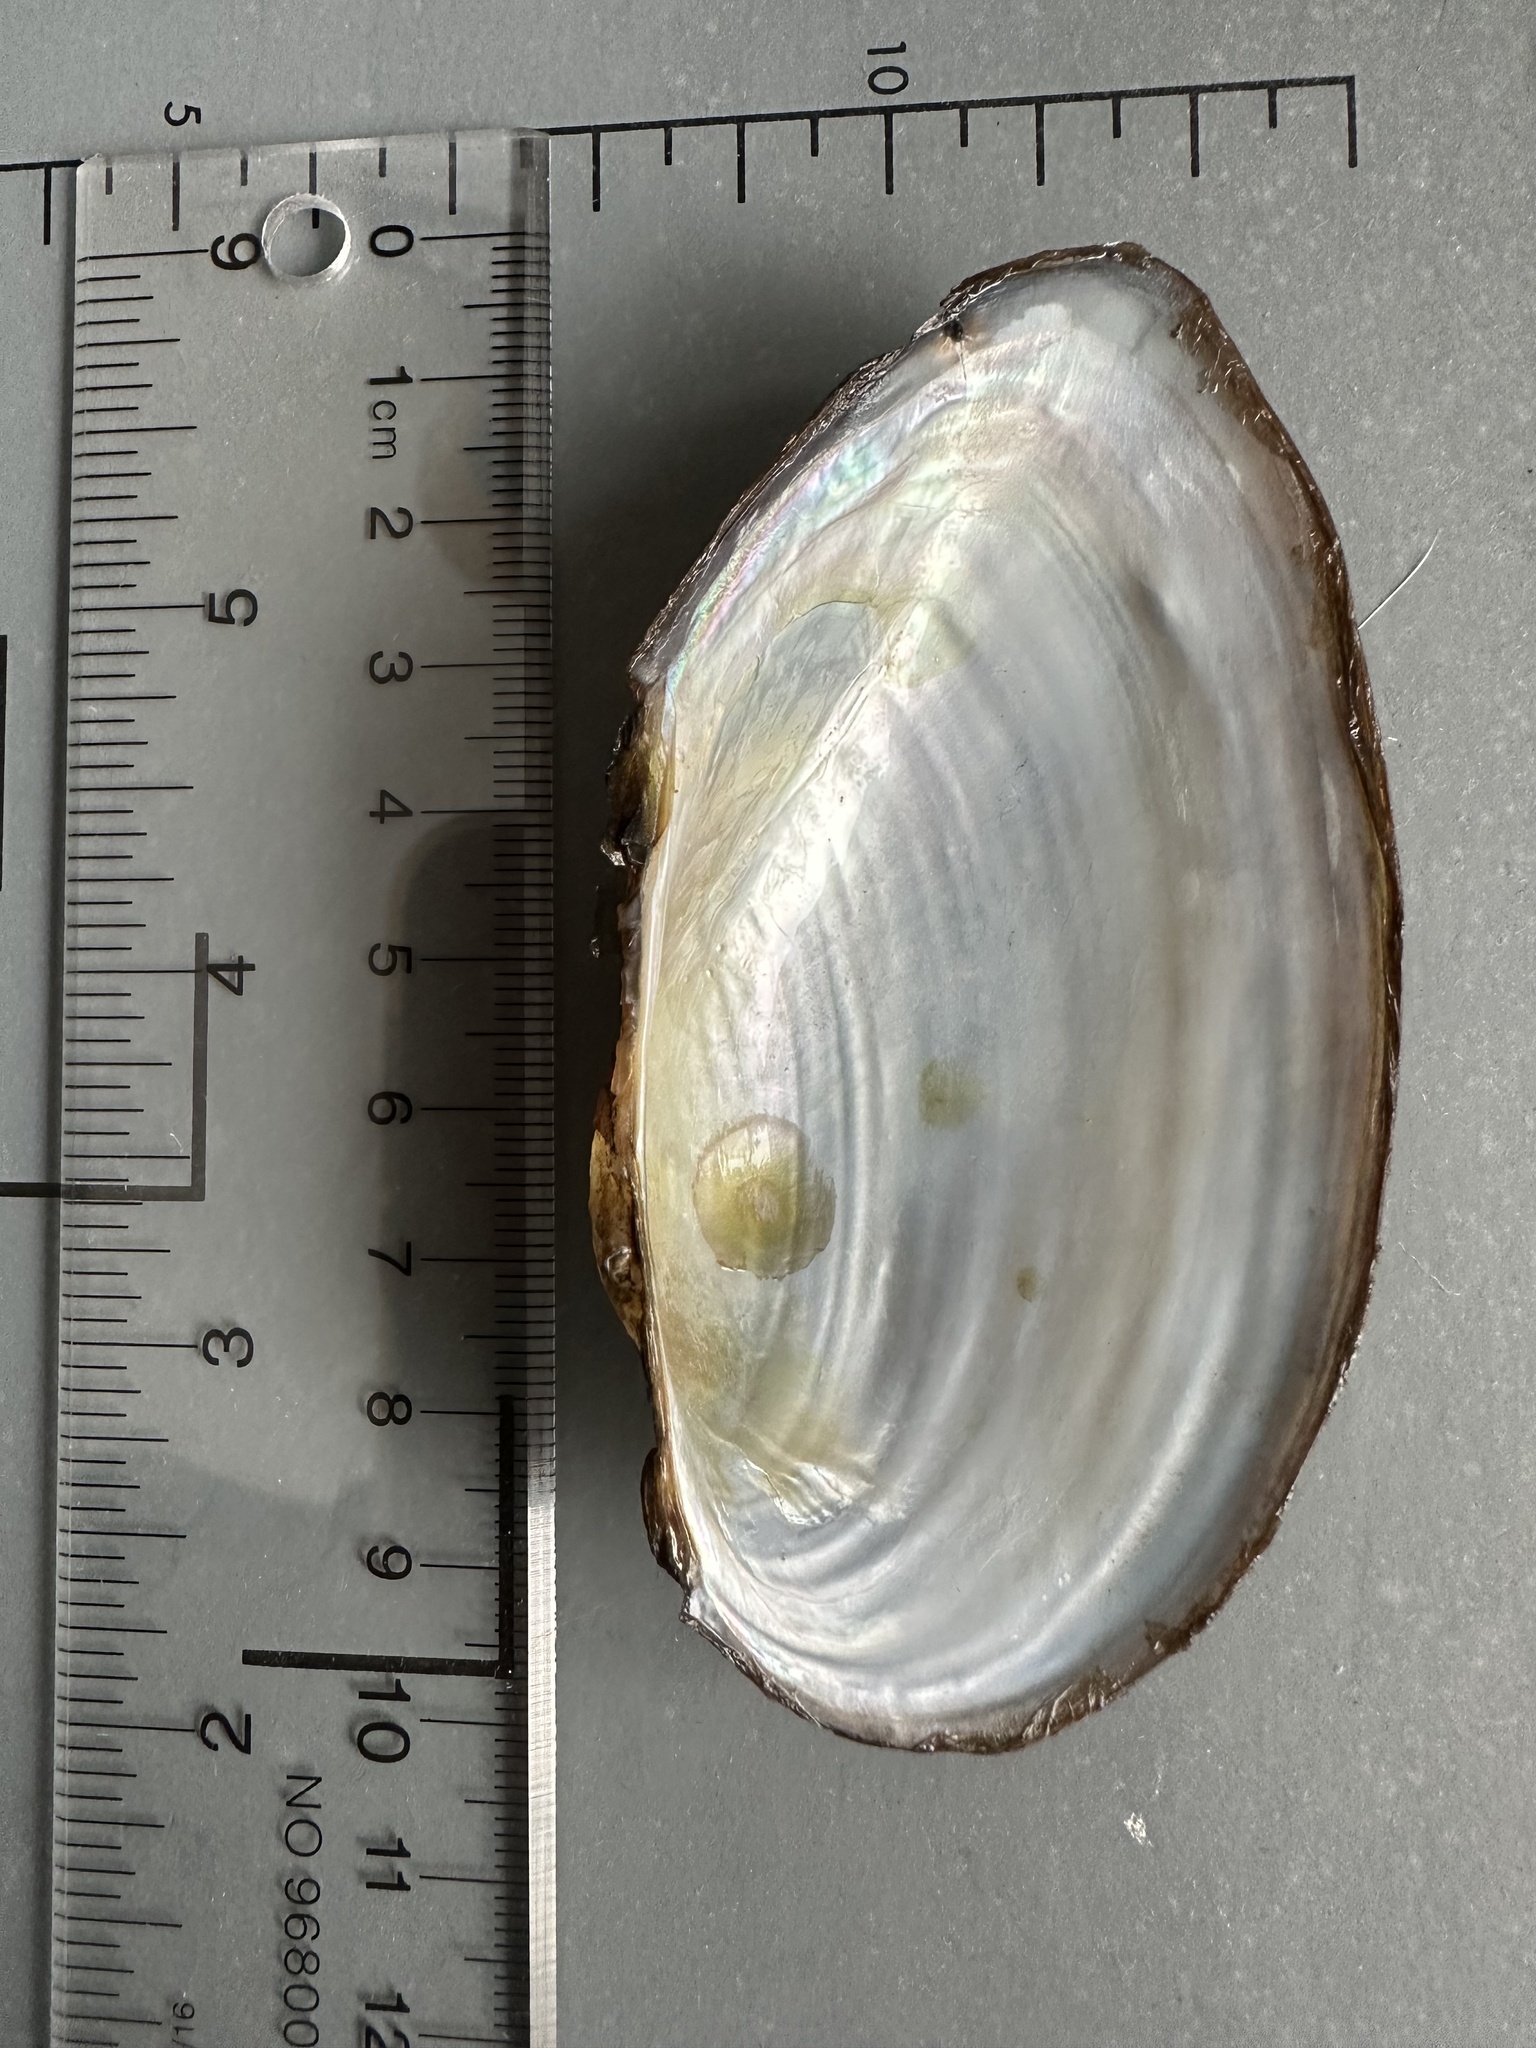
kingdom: Animalia
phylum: Mollusca
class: Bivalvia
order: Unionida
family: Unionidae
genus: Pyganodon
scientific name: Pyganodon grandis
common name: Giant floater
